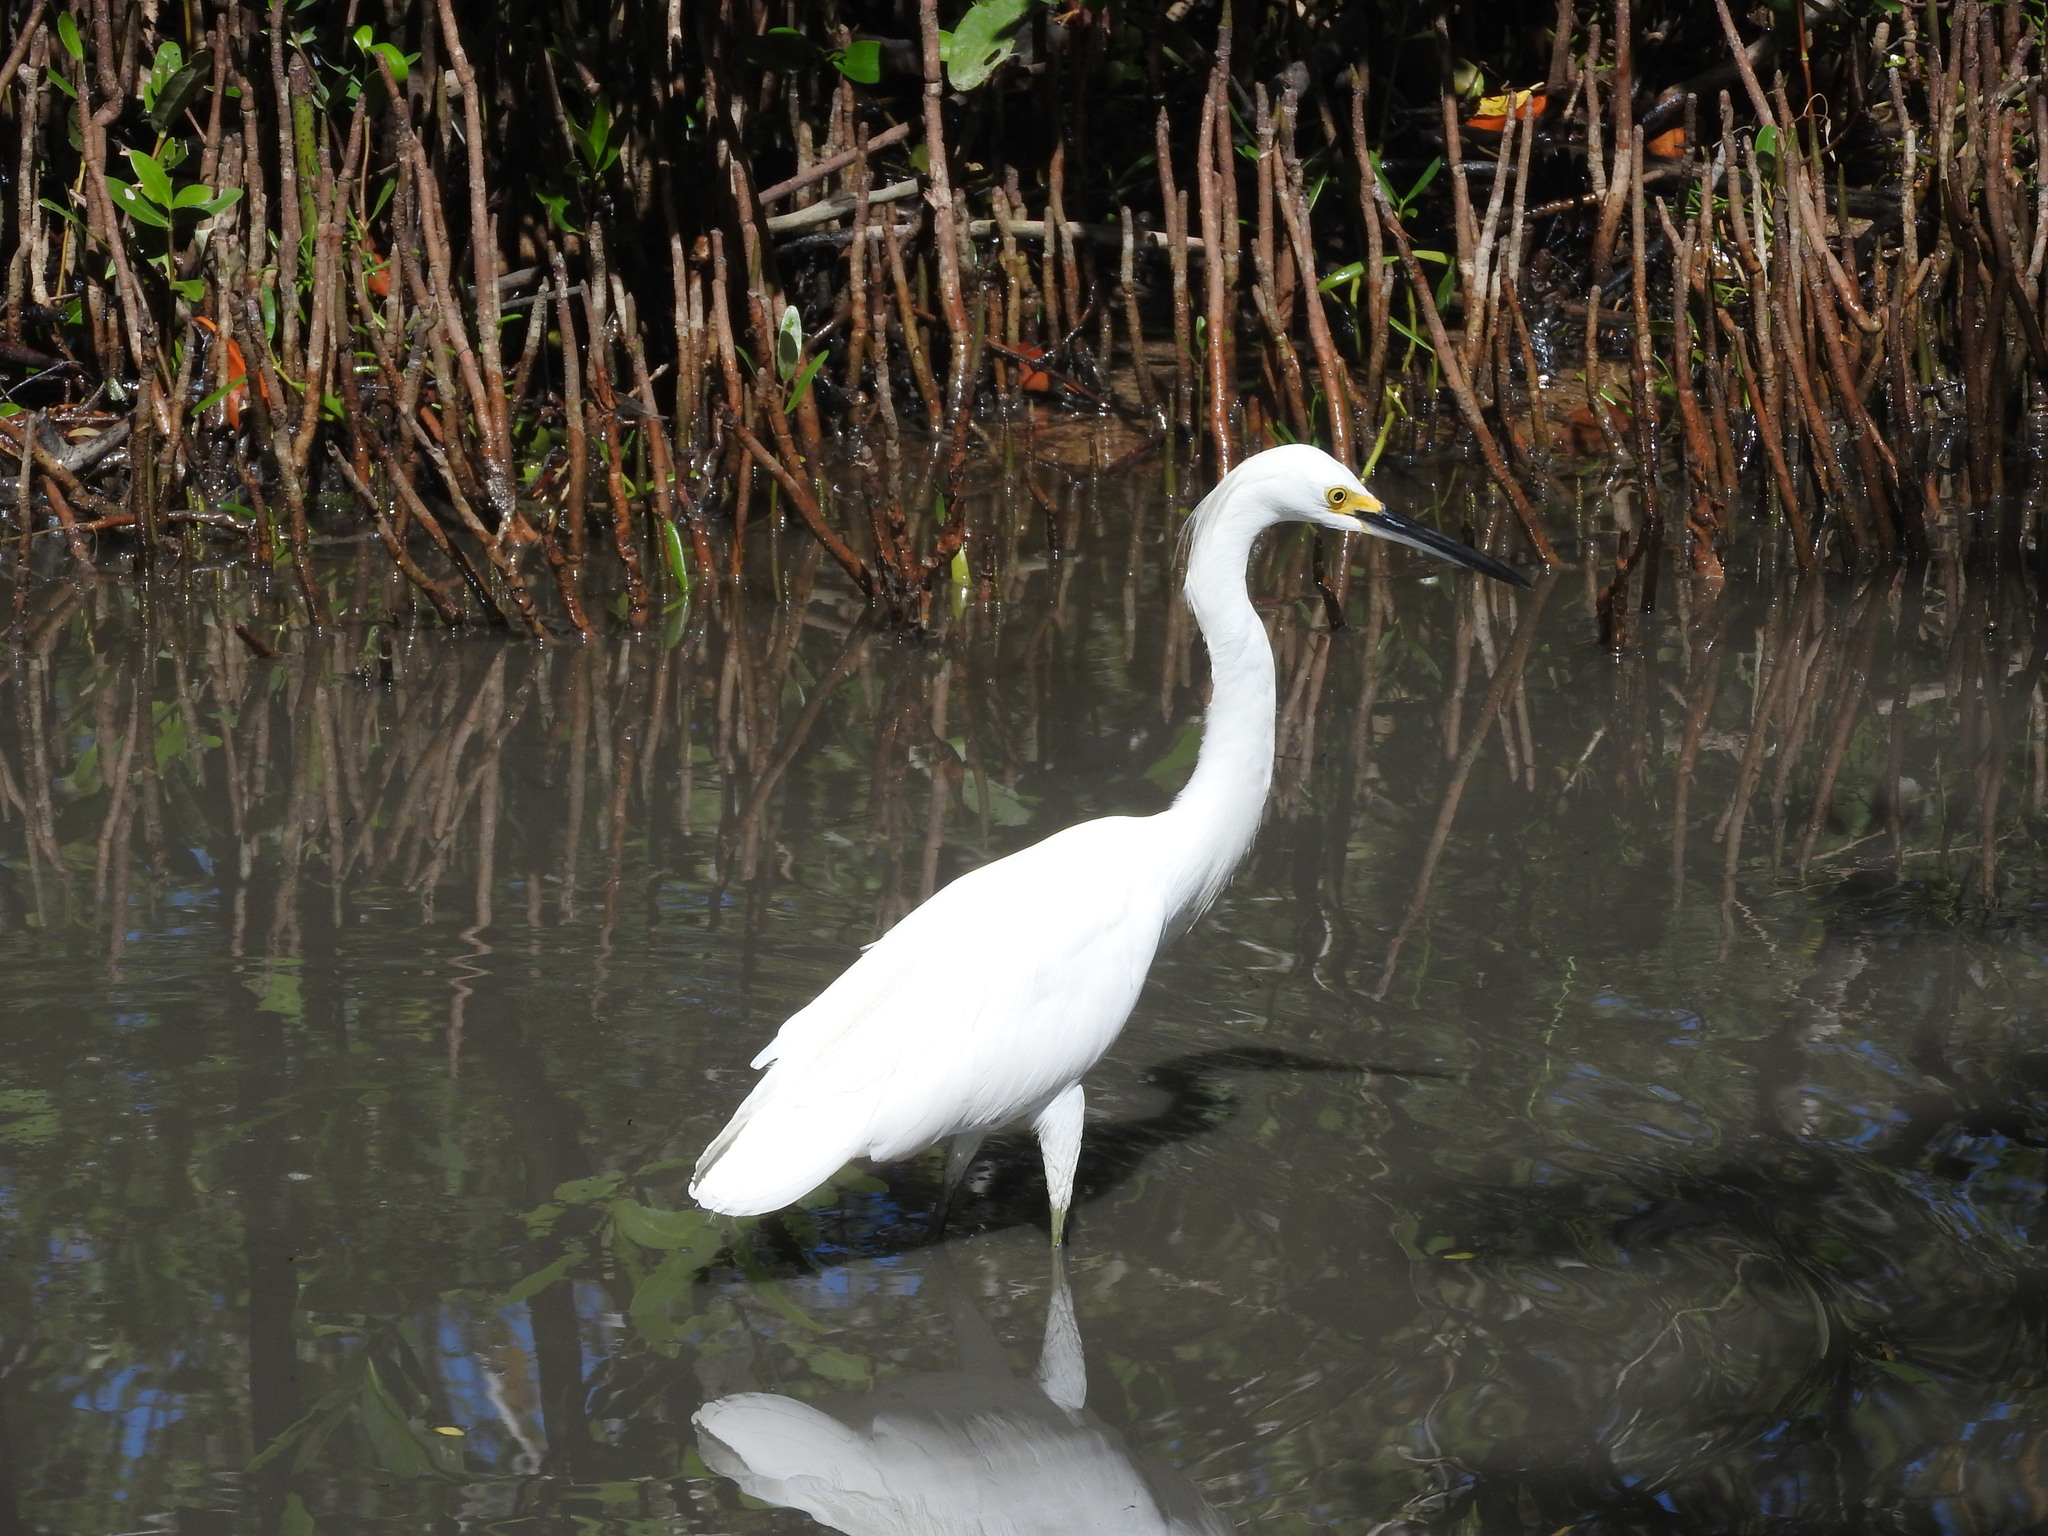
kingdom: Animalia
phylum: Chordata
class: Aves
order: Pelecaniformes
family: Ardeidae
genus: Egretta
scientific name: Egretta thula
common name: Snowy egret
